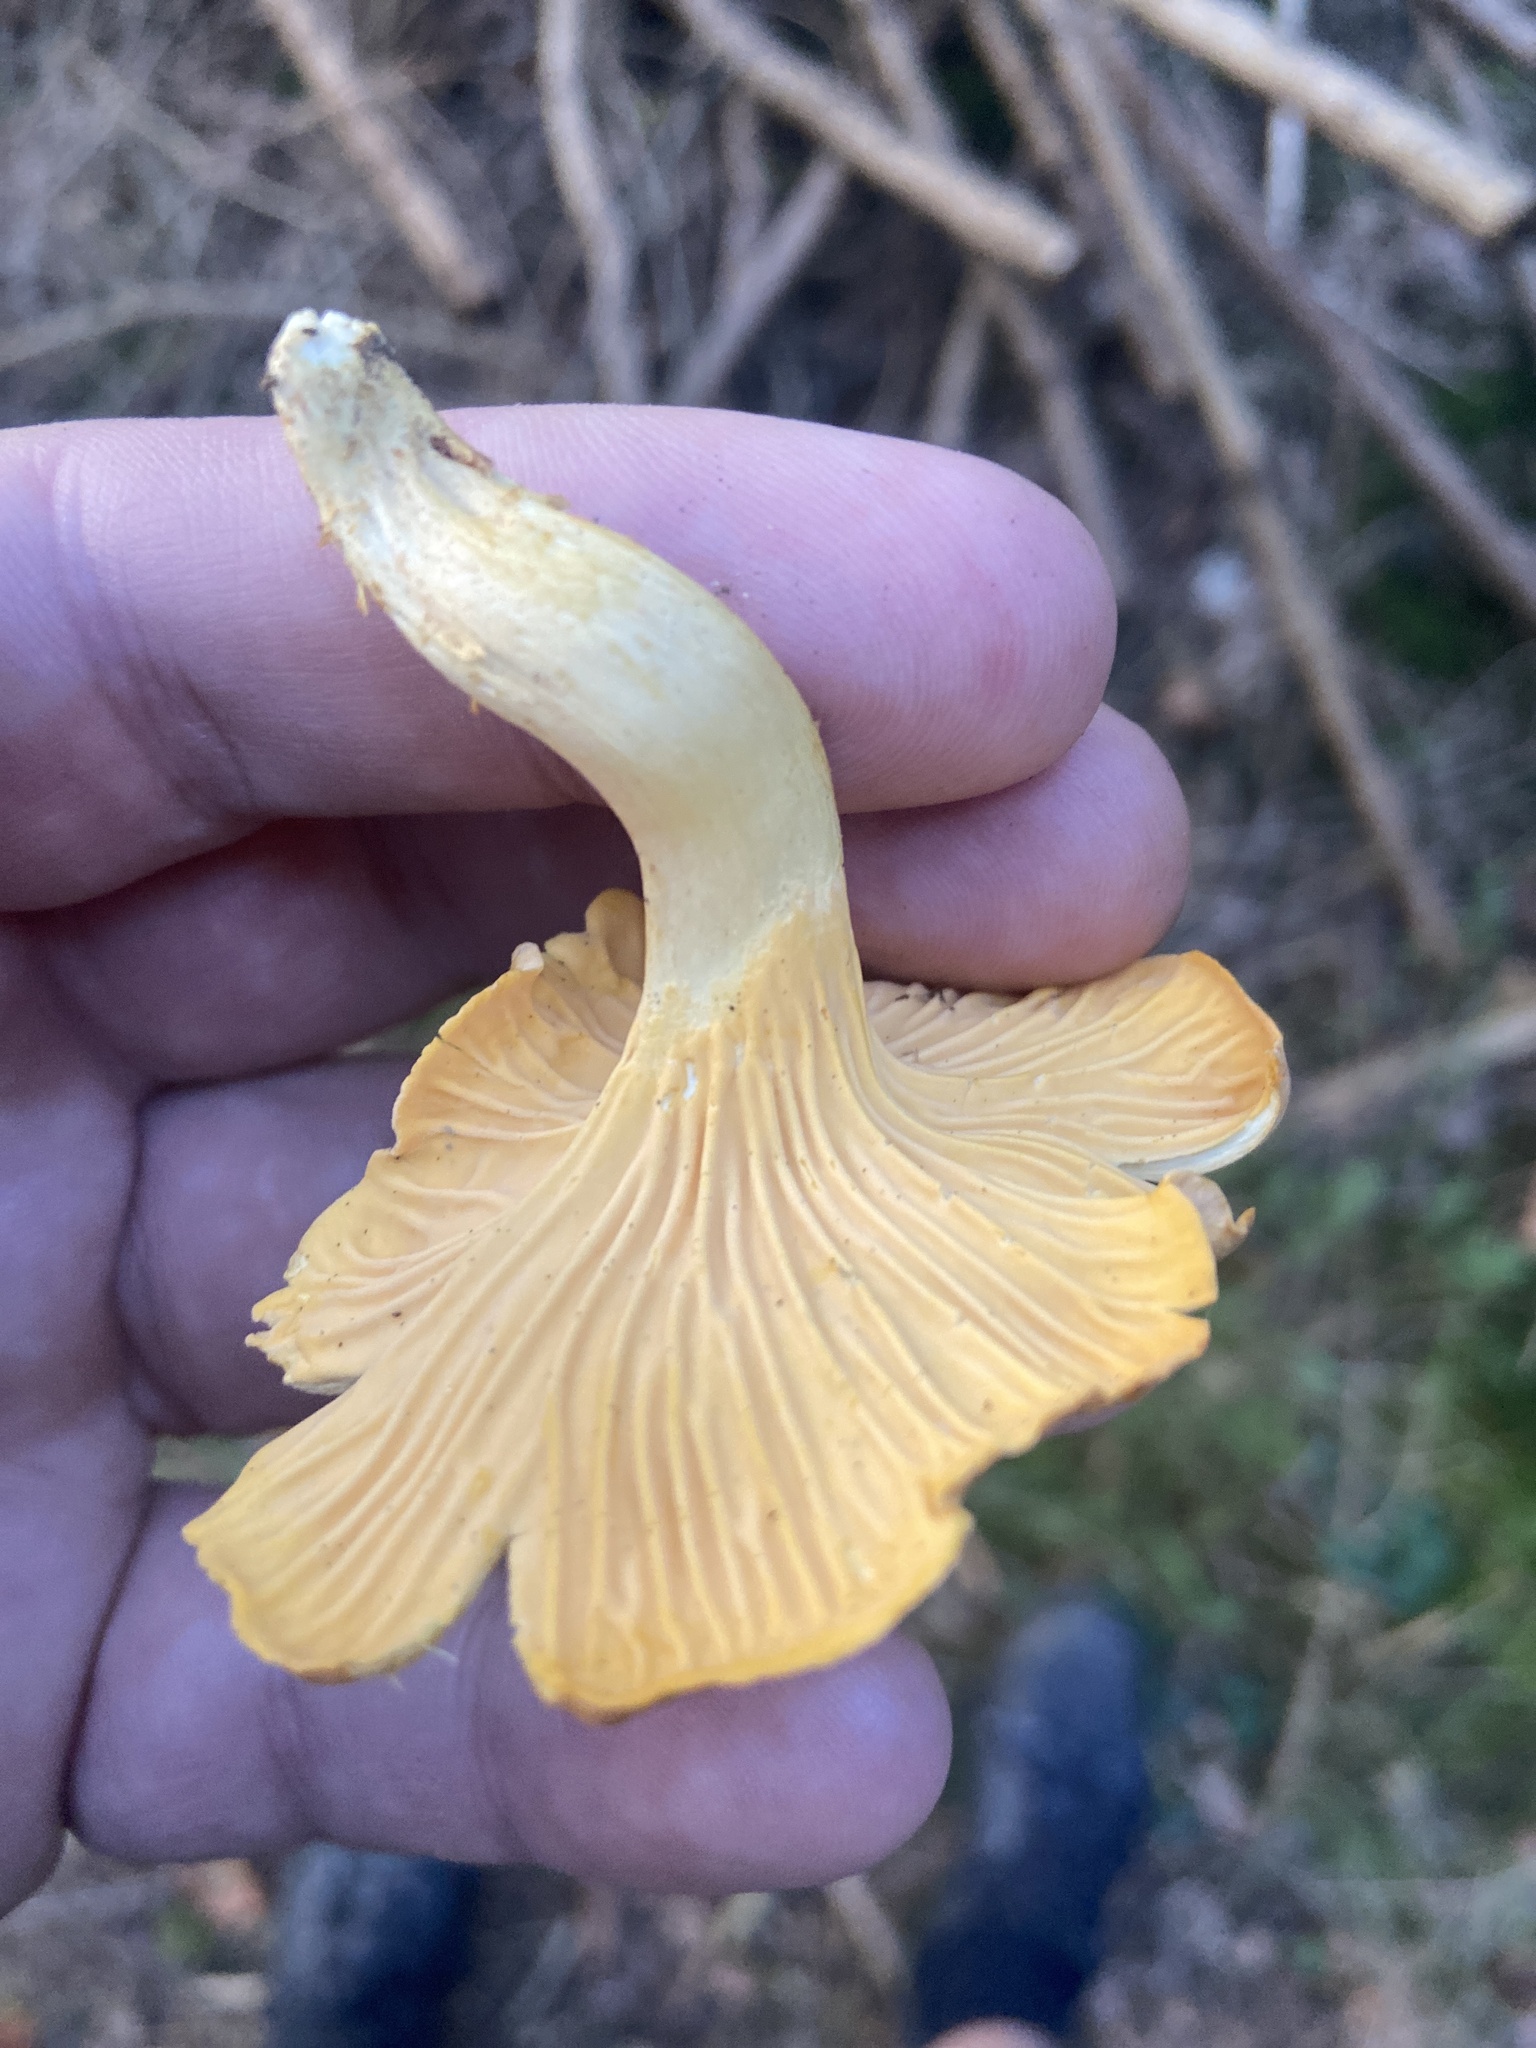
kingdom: Fungi
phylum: Basidiomycota
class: Agaricomycetes
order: Cantharellales
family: Hydnaceae
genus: Cantharellus
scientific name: Cantharellus amethysteus
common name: Amethyst chanterelle
